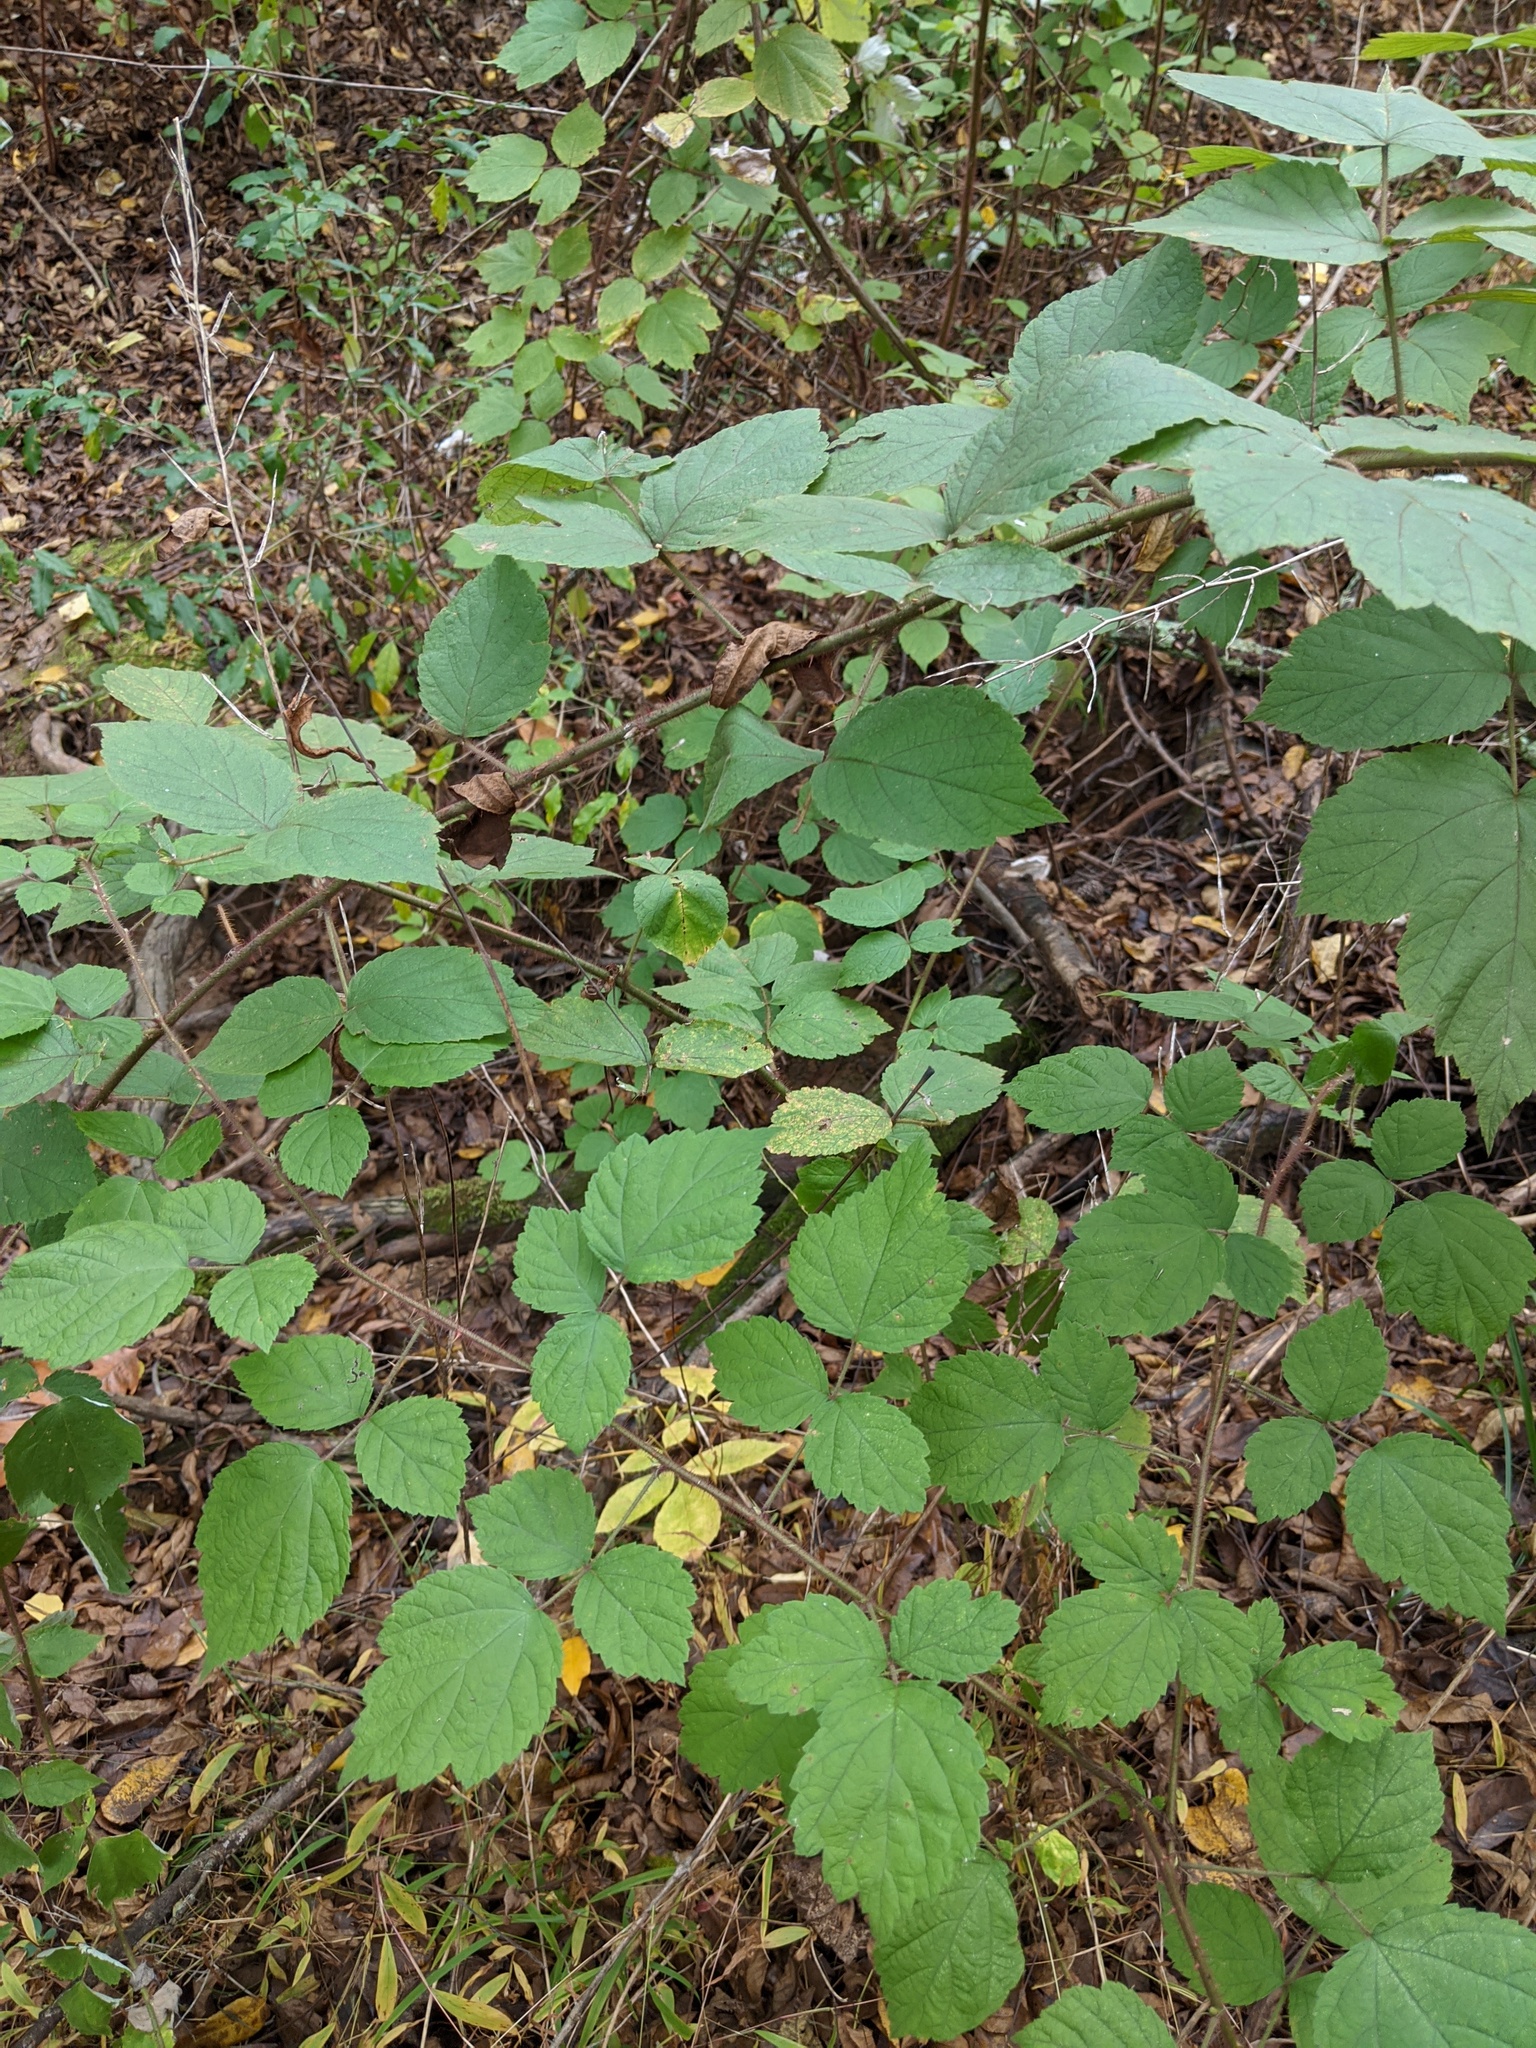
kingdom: Plantae
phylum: Tracheophyta
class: Magnoliopsida
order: Rosales
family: Rosaceae
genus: Rubus
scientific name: Rubus phoenicolasius
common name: Japanese wineberry
